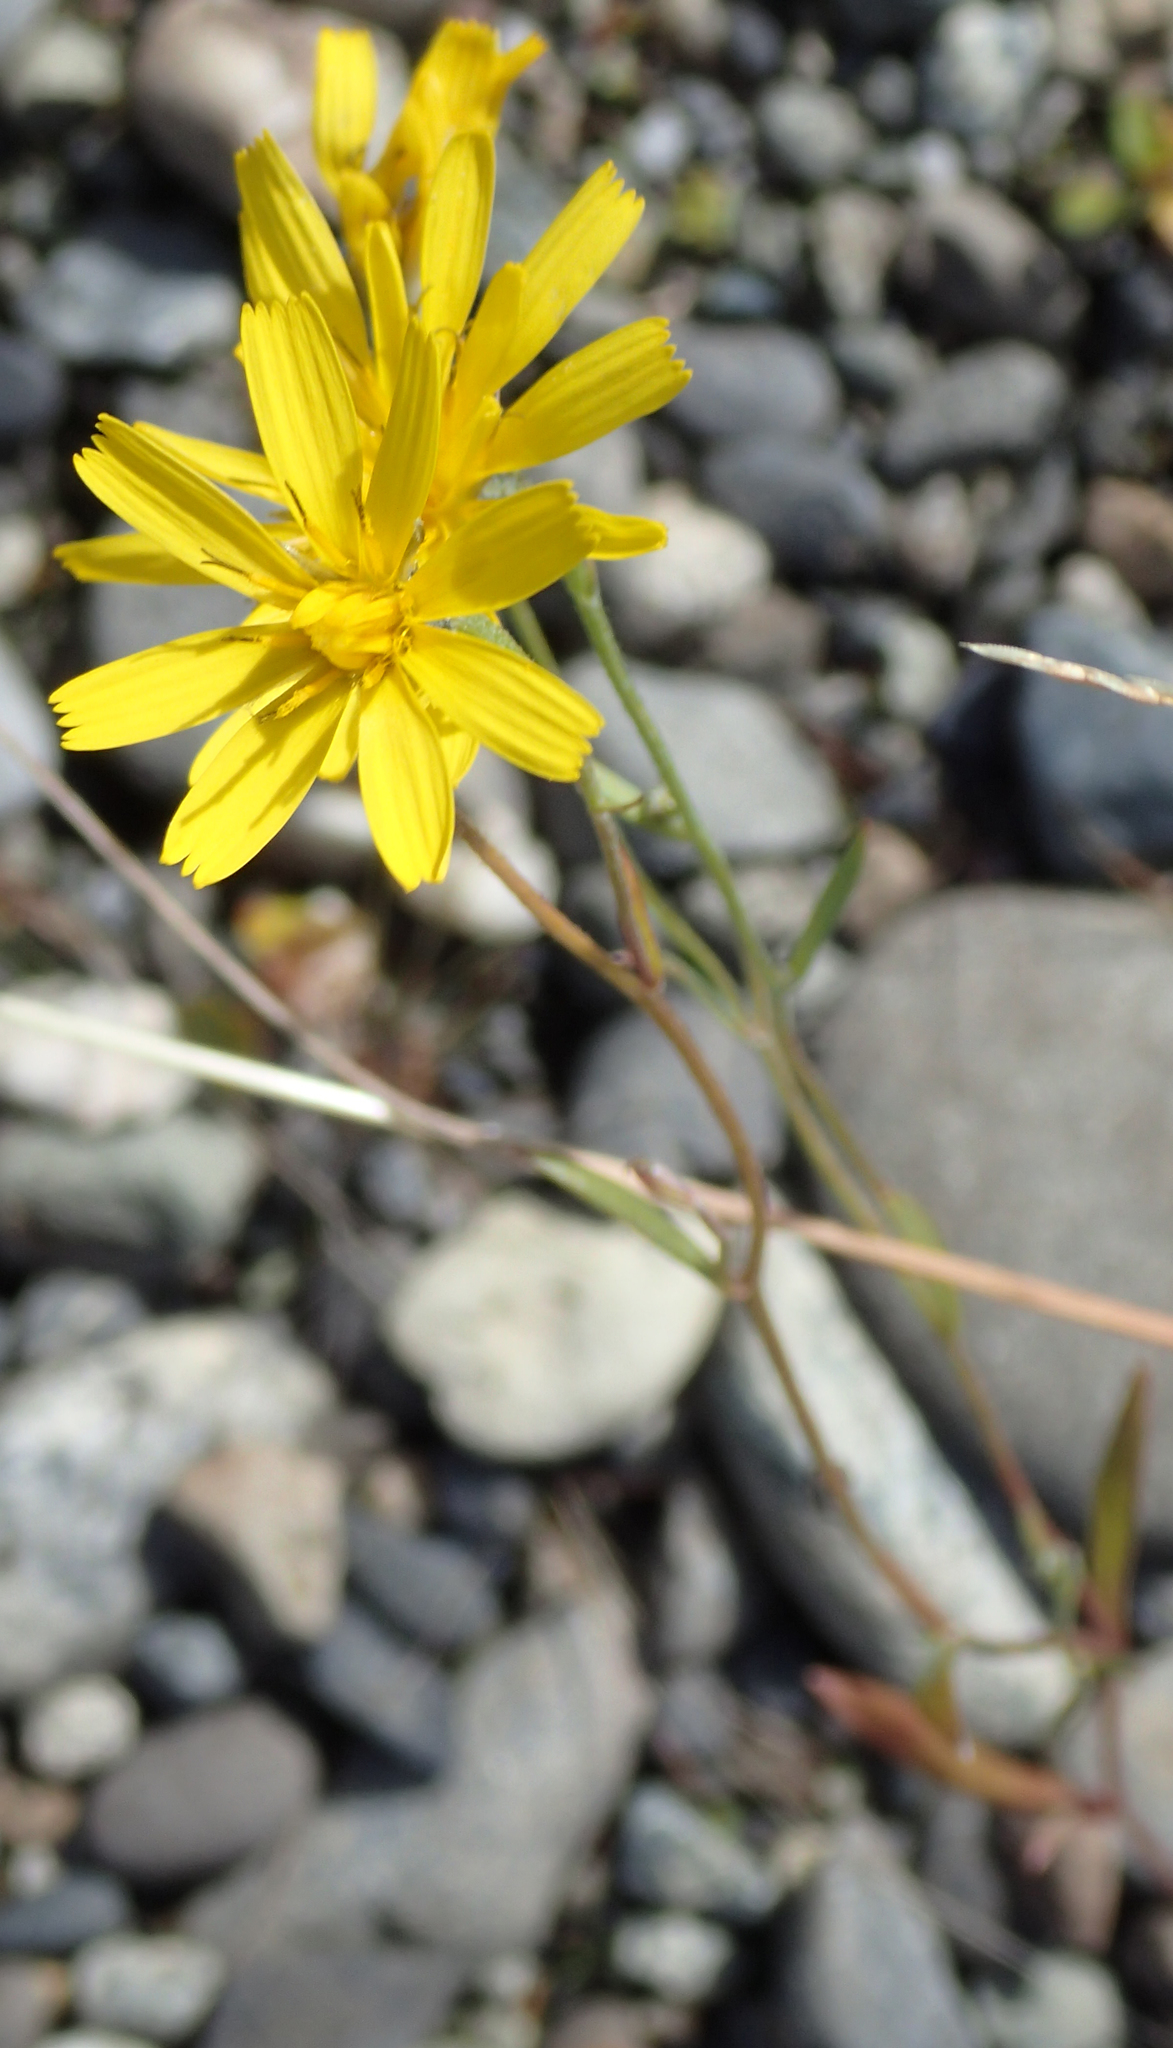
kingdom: Plantae
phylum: Tracheophyta
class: Magnoliopsida
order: Asterales
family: Asteraceae
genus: Crepis
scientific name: Crepis tectorum
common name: Narrow-leaved hawk's-beard
